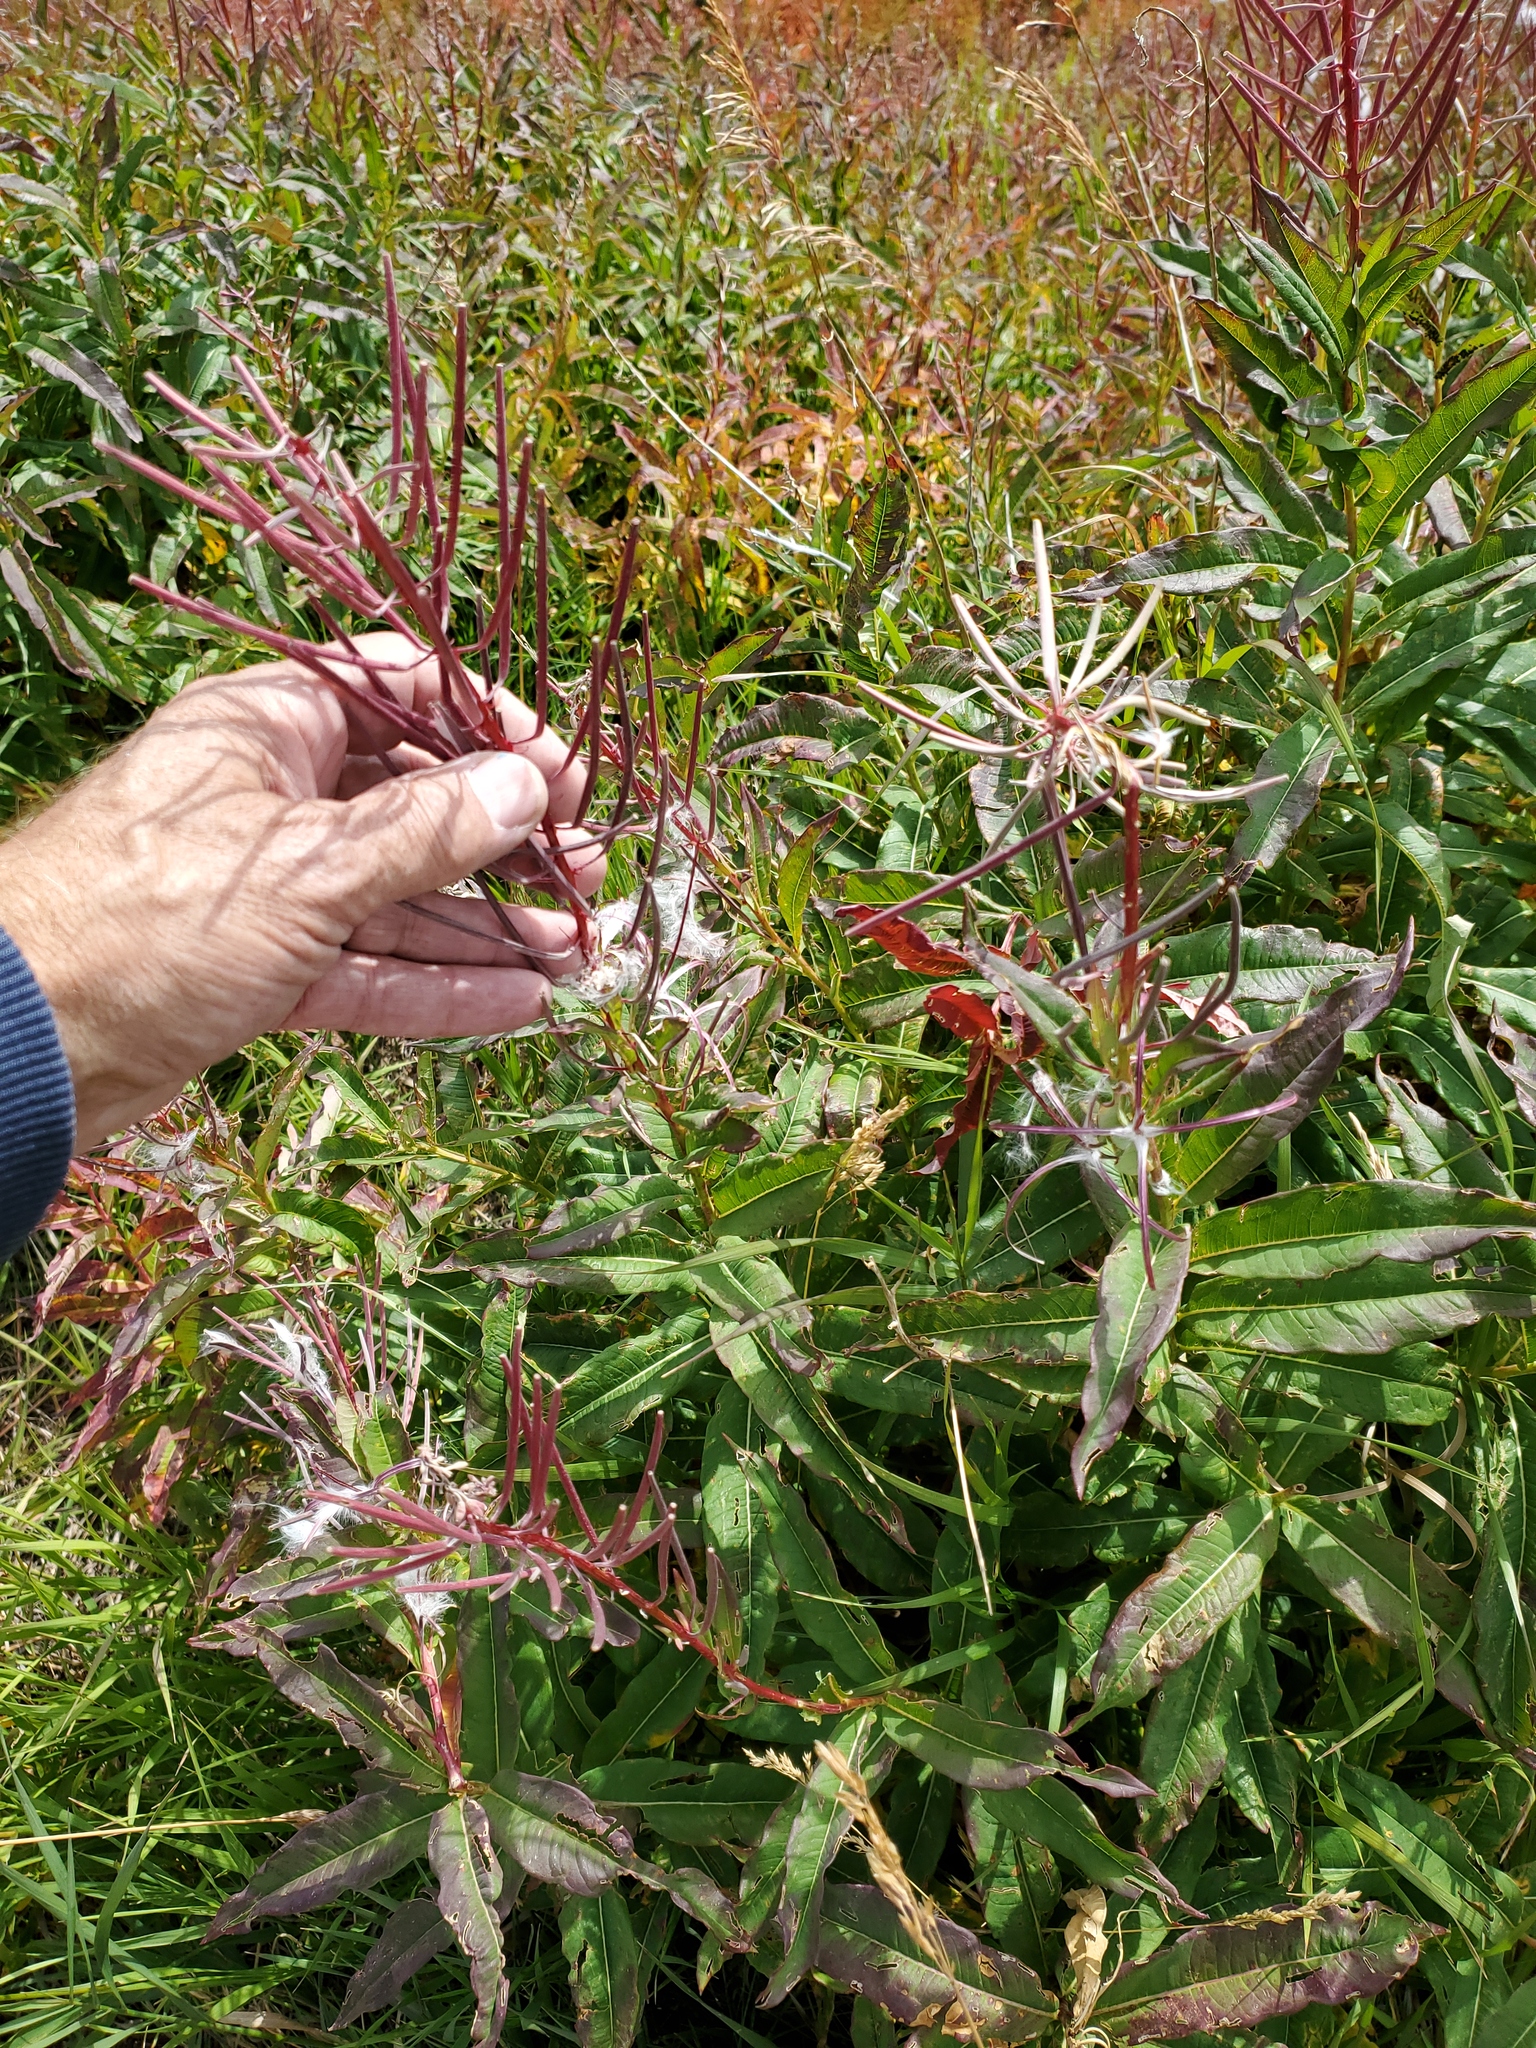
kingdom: Plantae
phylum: Tracheophyta
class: Magnoliopsida
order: Myrtales
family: Onagraceae
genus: Chamaenerion
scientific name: Chamaenerion angustifolium
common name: Fireweed
